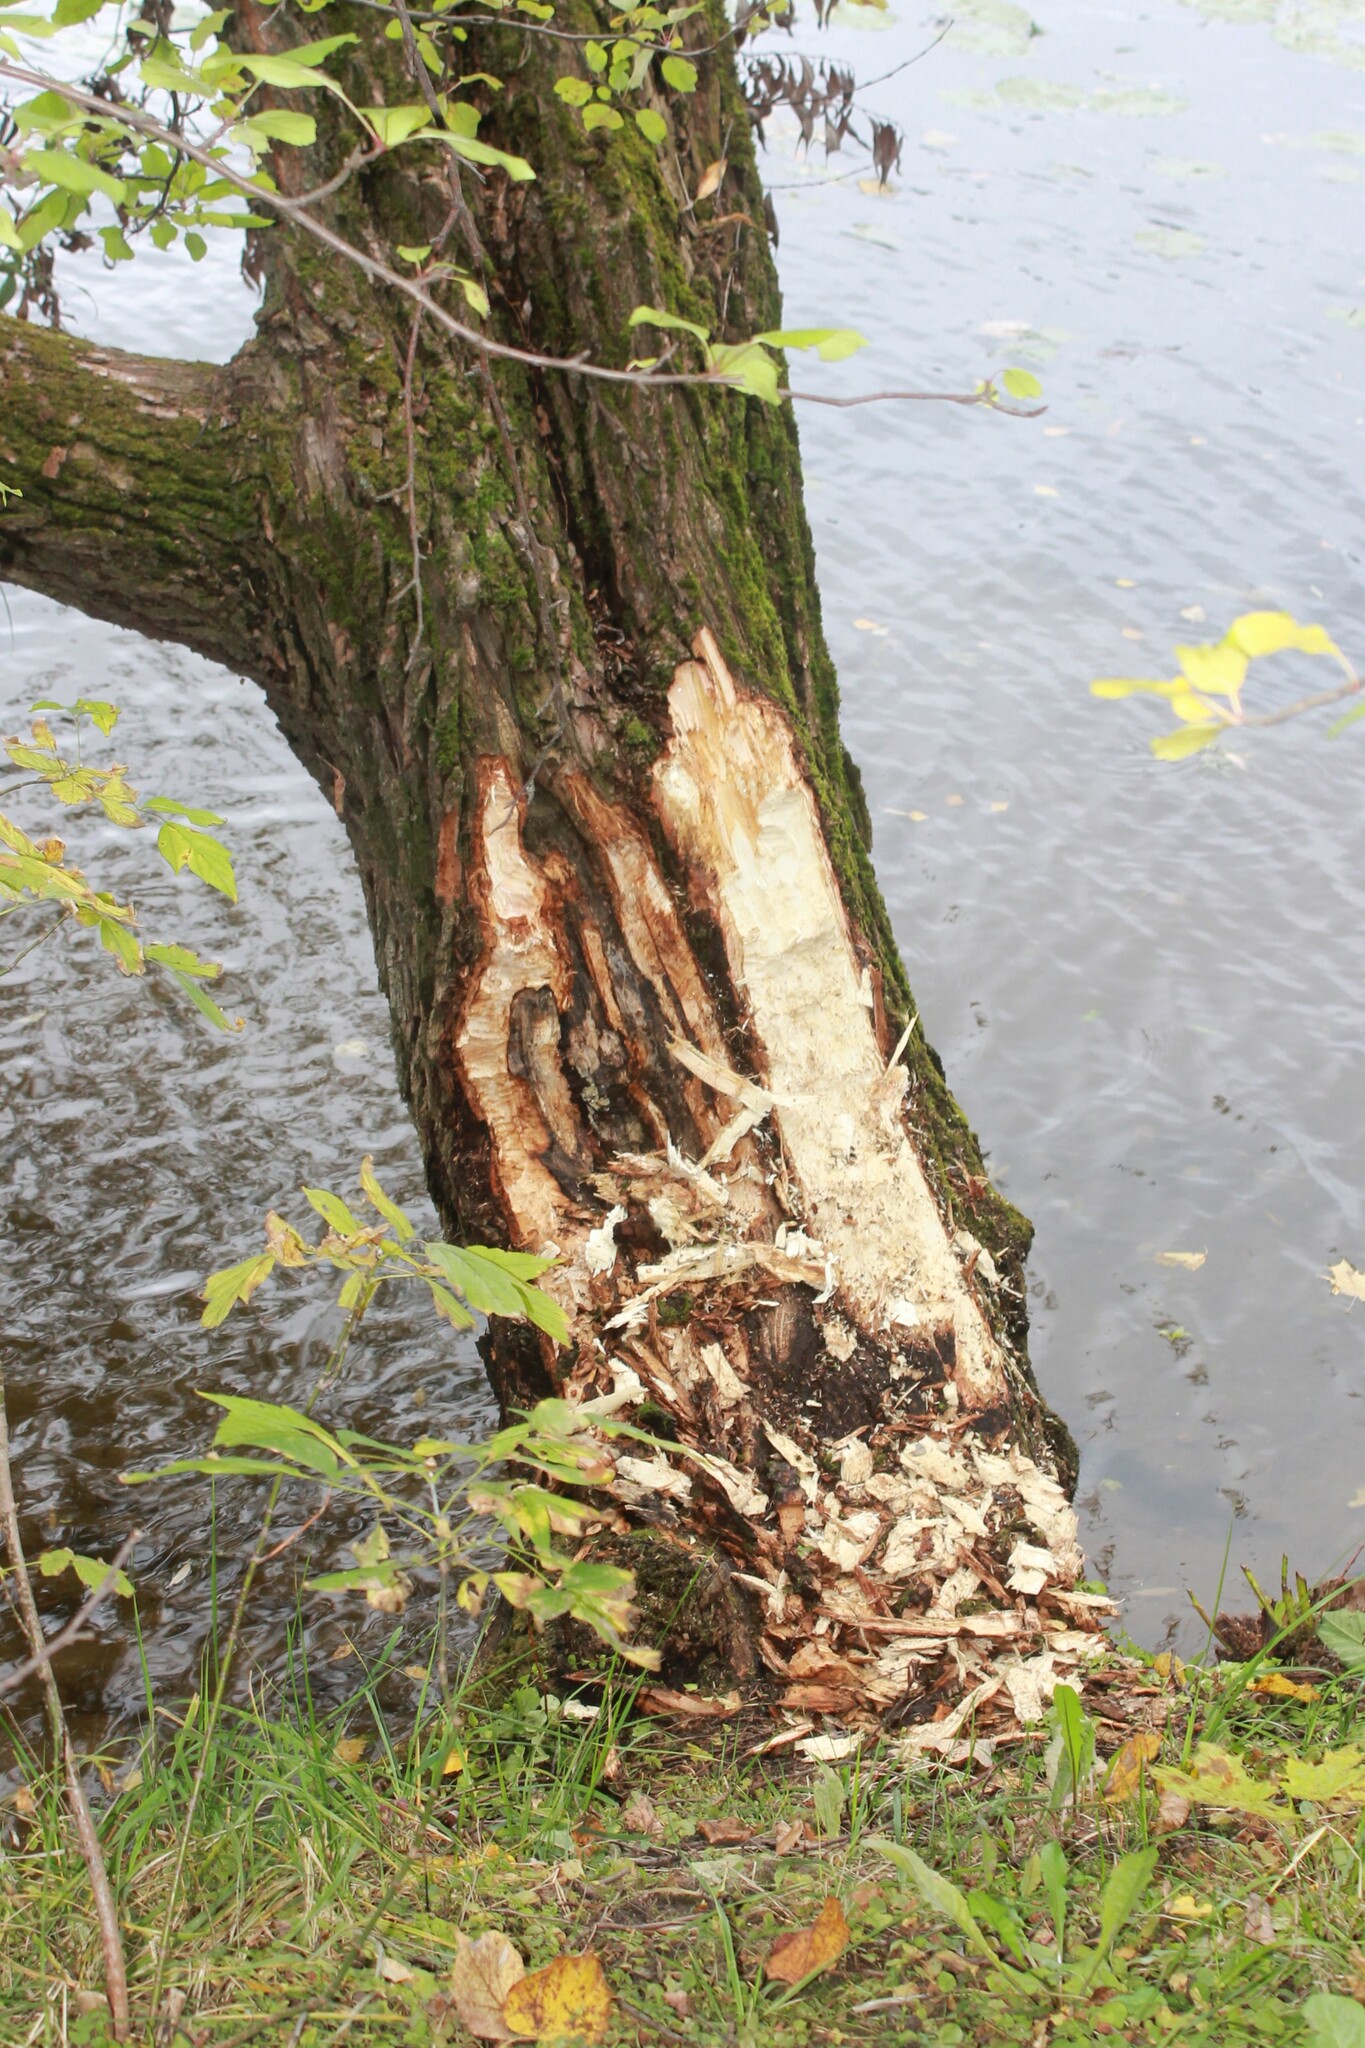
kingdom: Animalia
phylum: Chordata
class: Mammalia
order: Rodentia
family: Castoridae
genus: Castor
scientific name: Castor fiber
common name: Eurasian beaver
